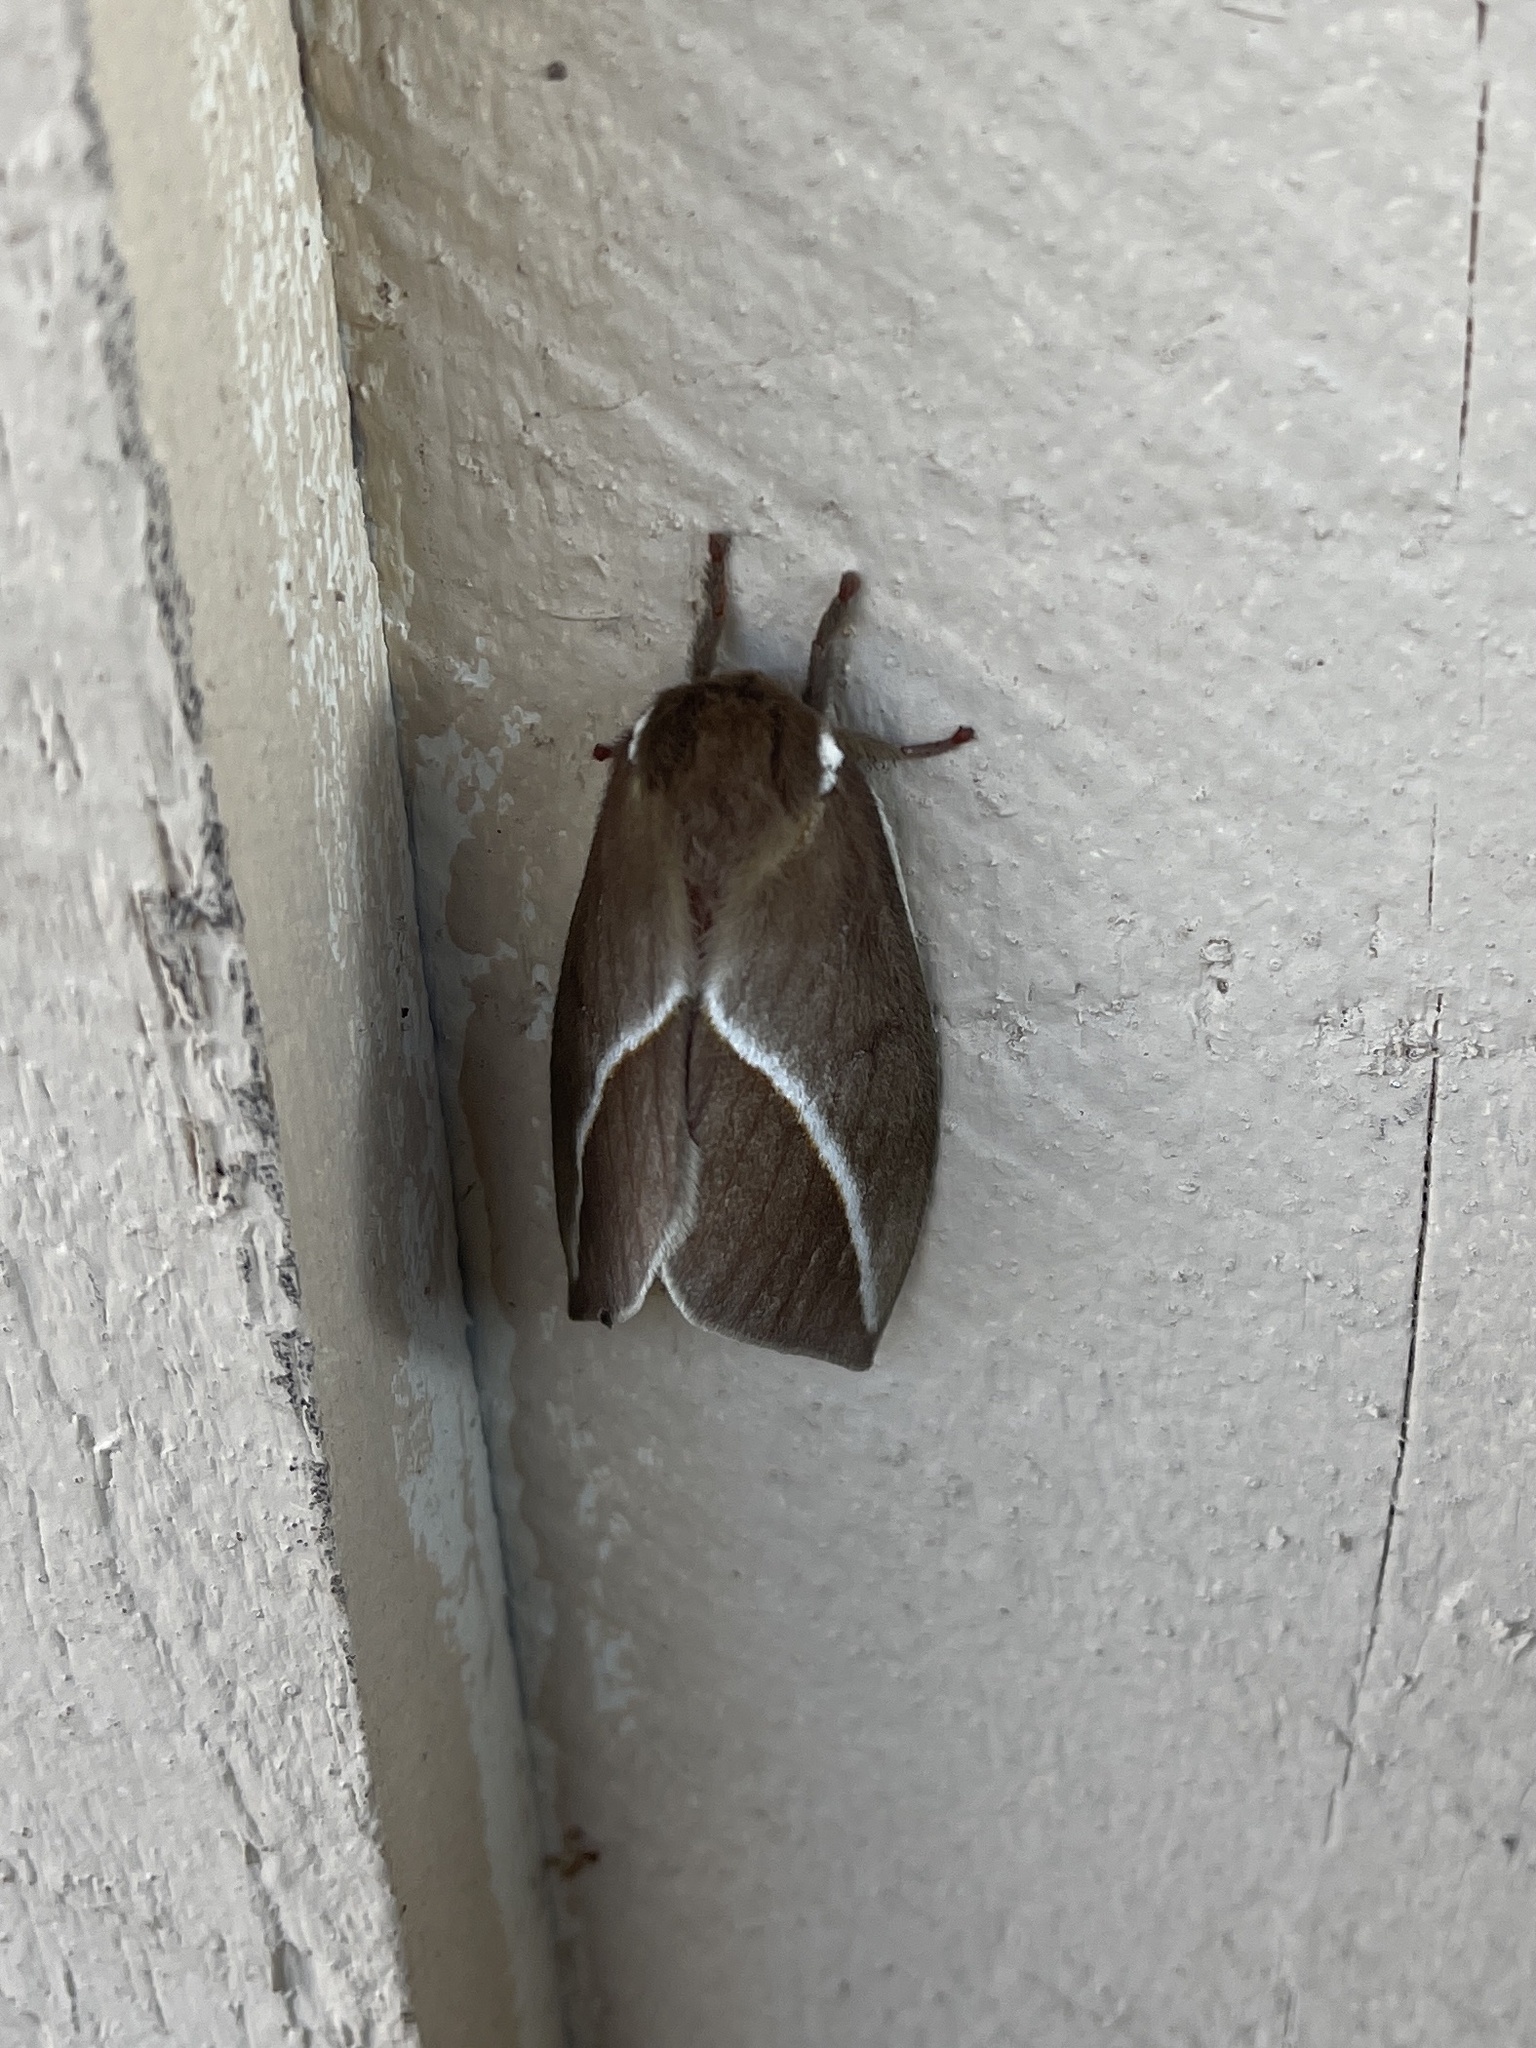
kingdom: Animalia
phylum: Arthropoda
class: Insecta
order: Lepidoptera
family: Saturniidae
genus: Automeris
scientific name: Automeris zephyria
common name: Zephyr eyed silkmoth
